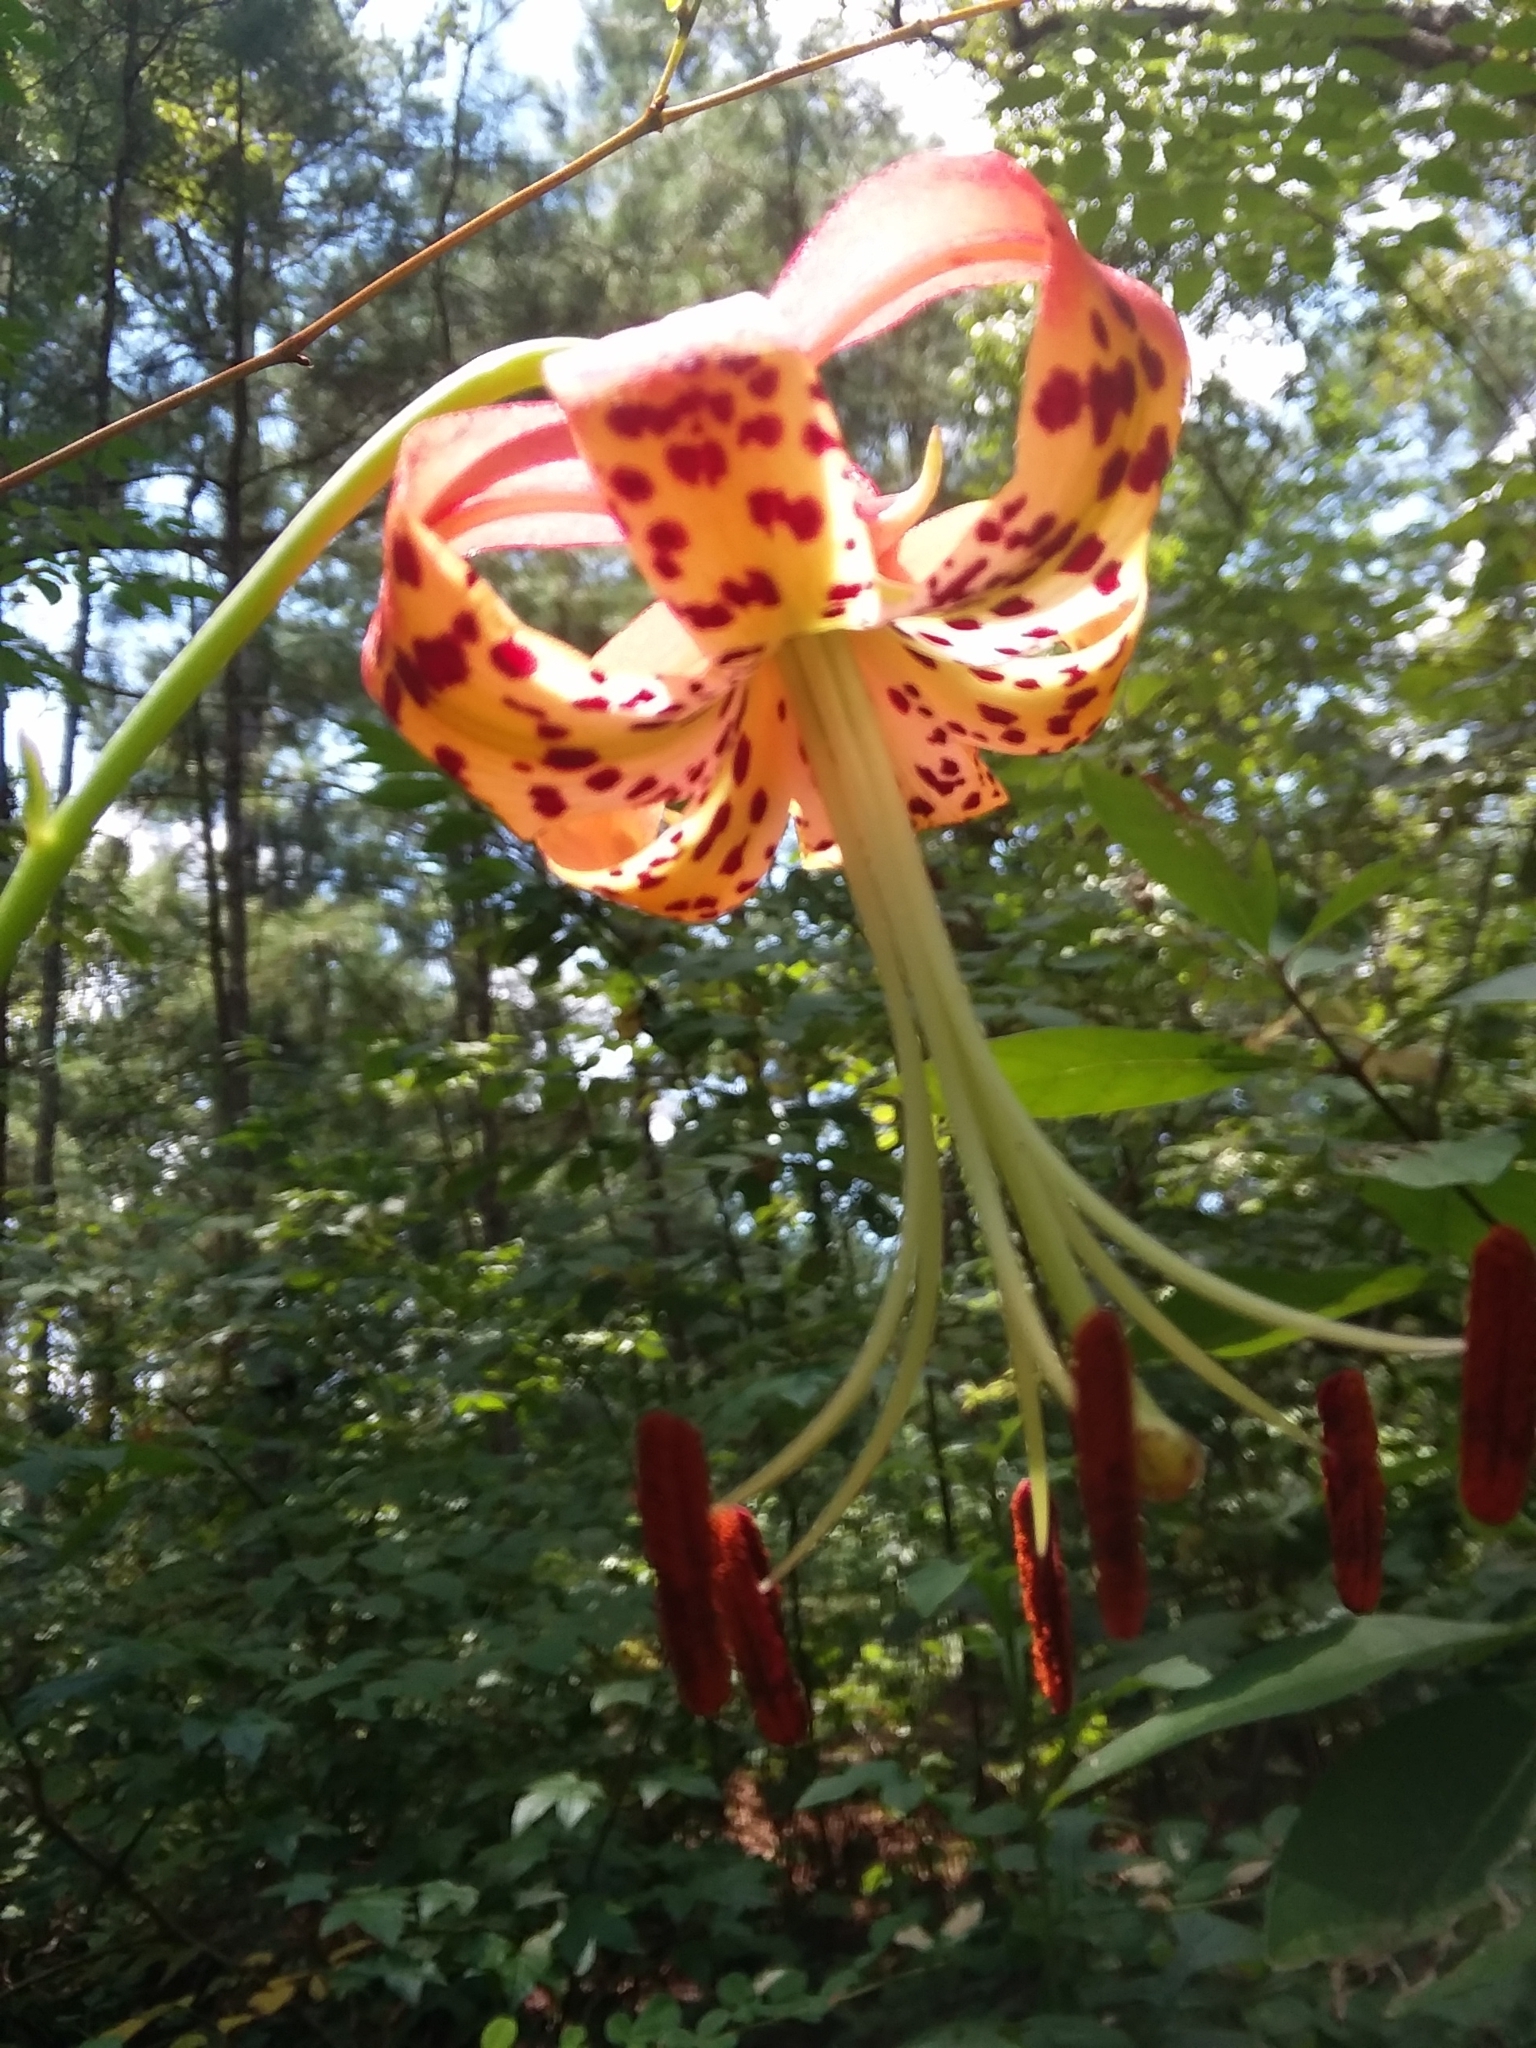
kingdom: Plantae
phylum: Tracheophyta
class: Liliopsida
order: Liliales
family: Liliaceae
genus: Lilium
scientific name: Lilium michauxii
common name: Carolina lily
